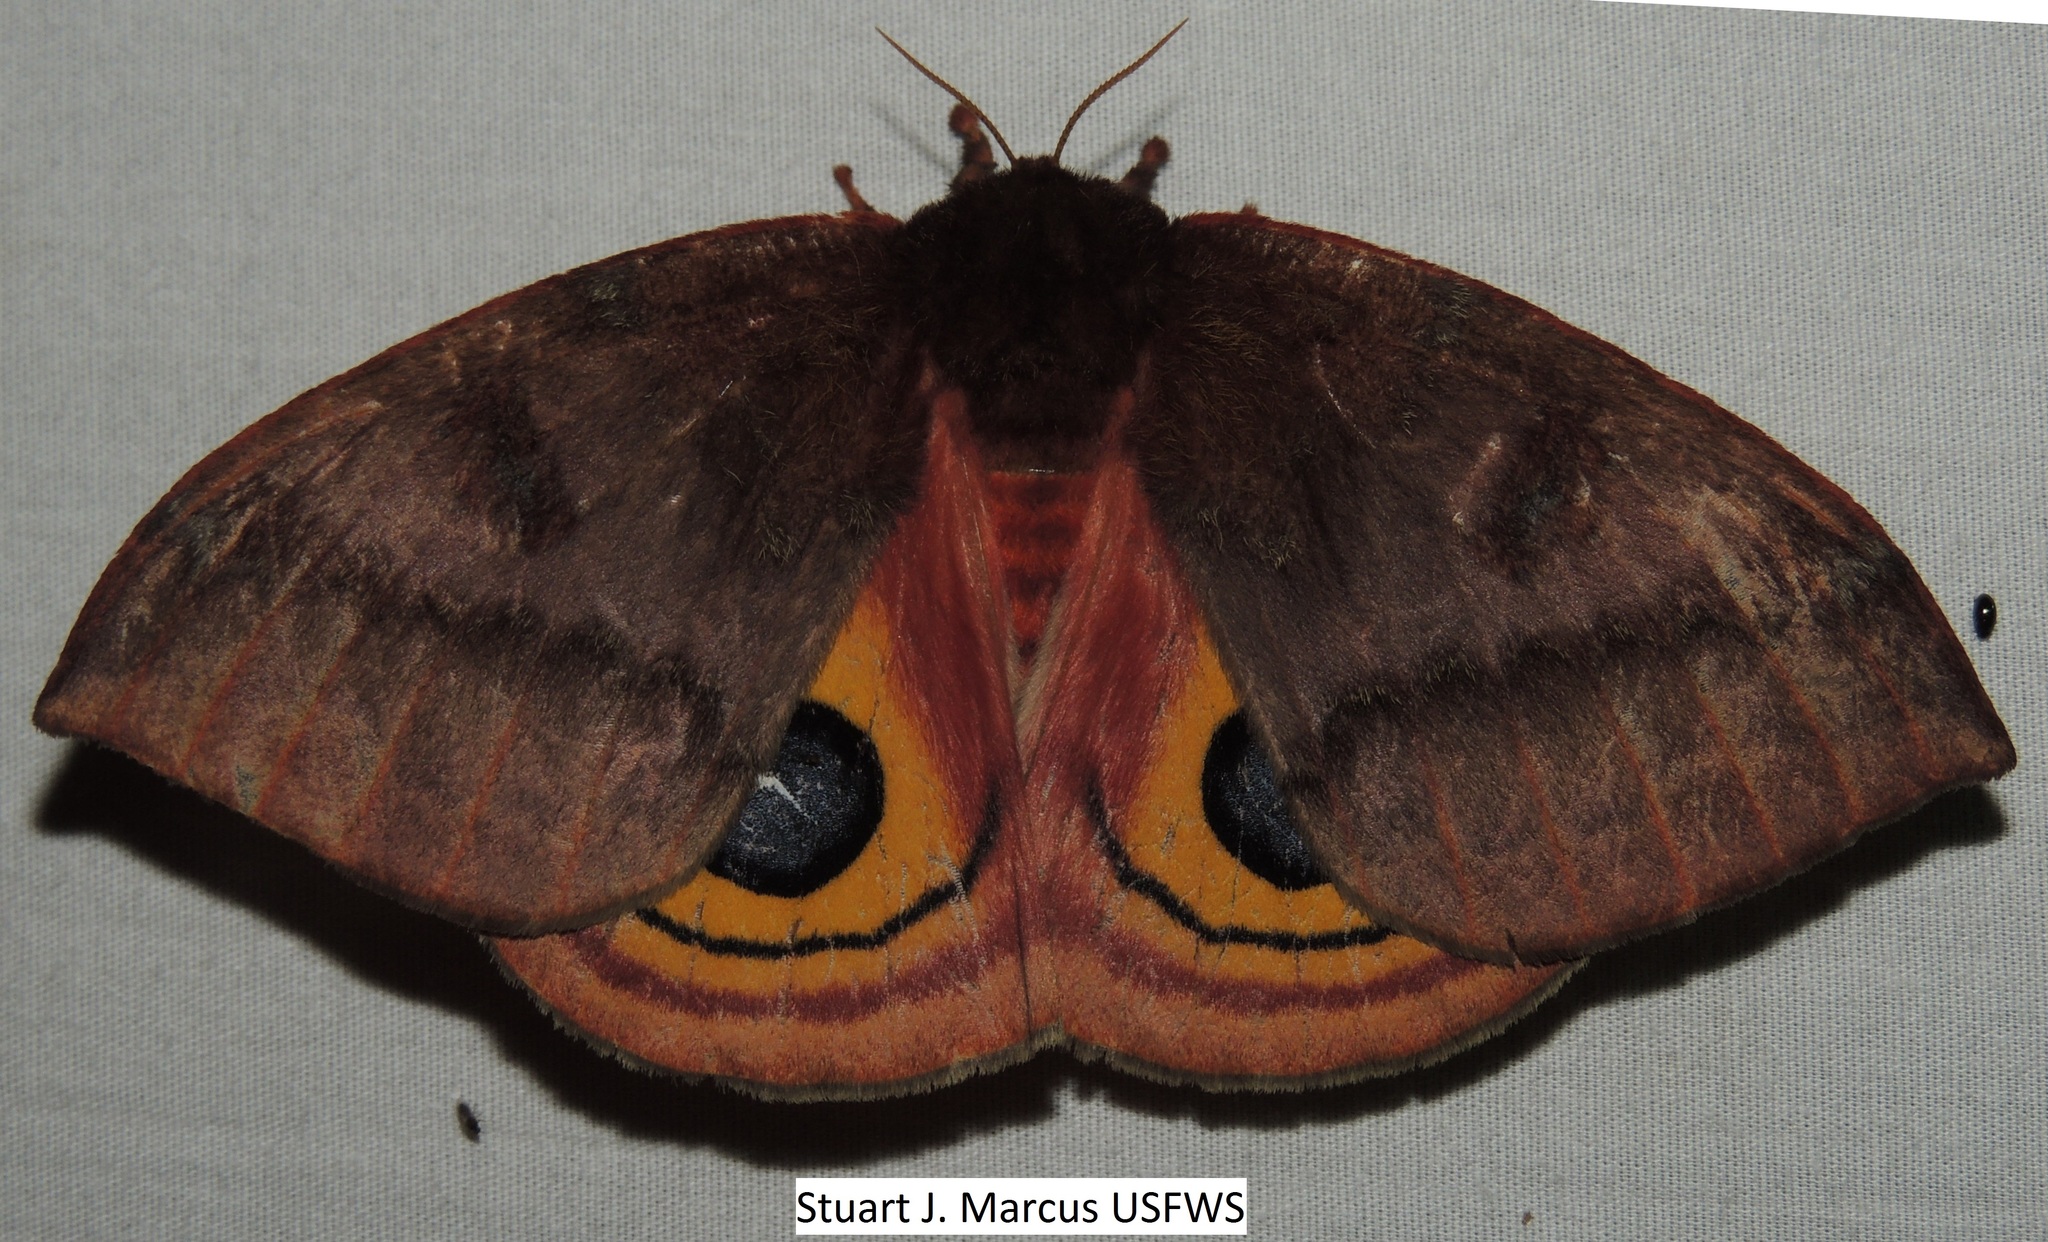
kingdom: Animalia
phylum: Arthropoda
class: Insecta
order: Lepidoptera
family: Saturniidae
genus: Automeris
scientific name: Automeris io
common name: Io moth
